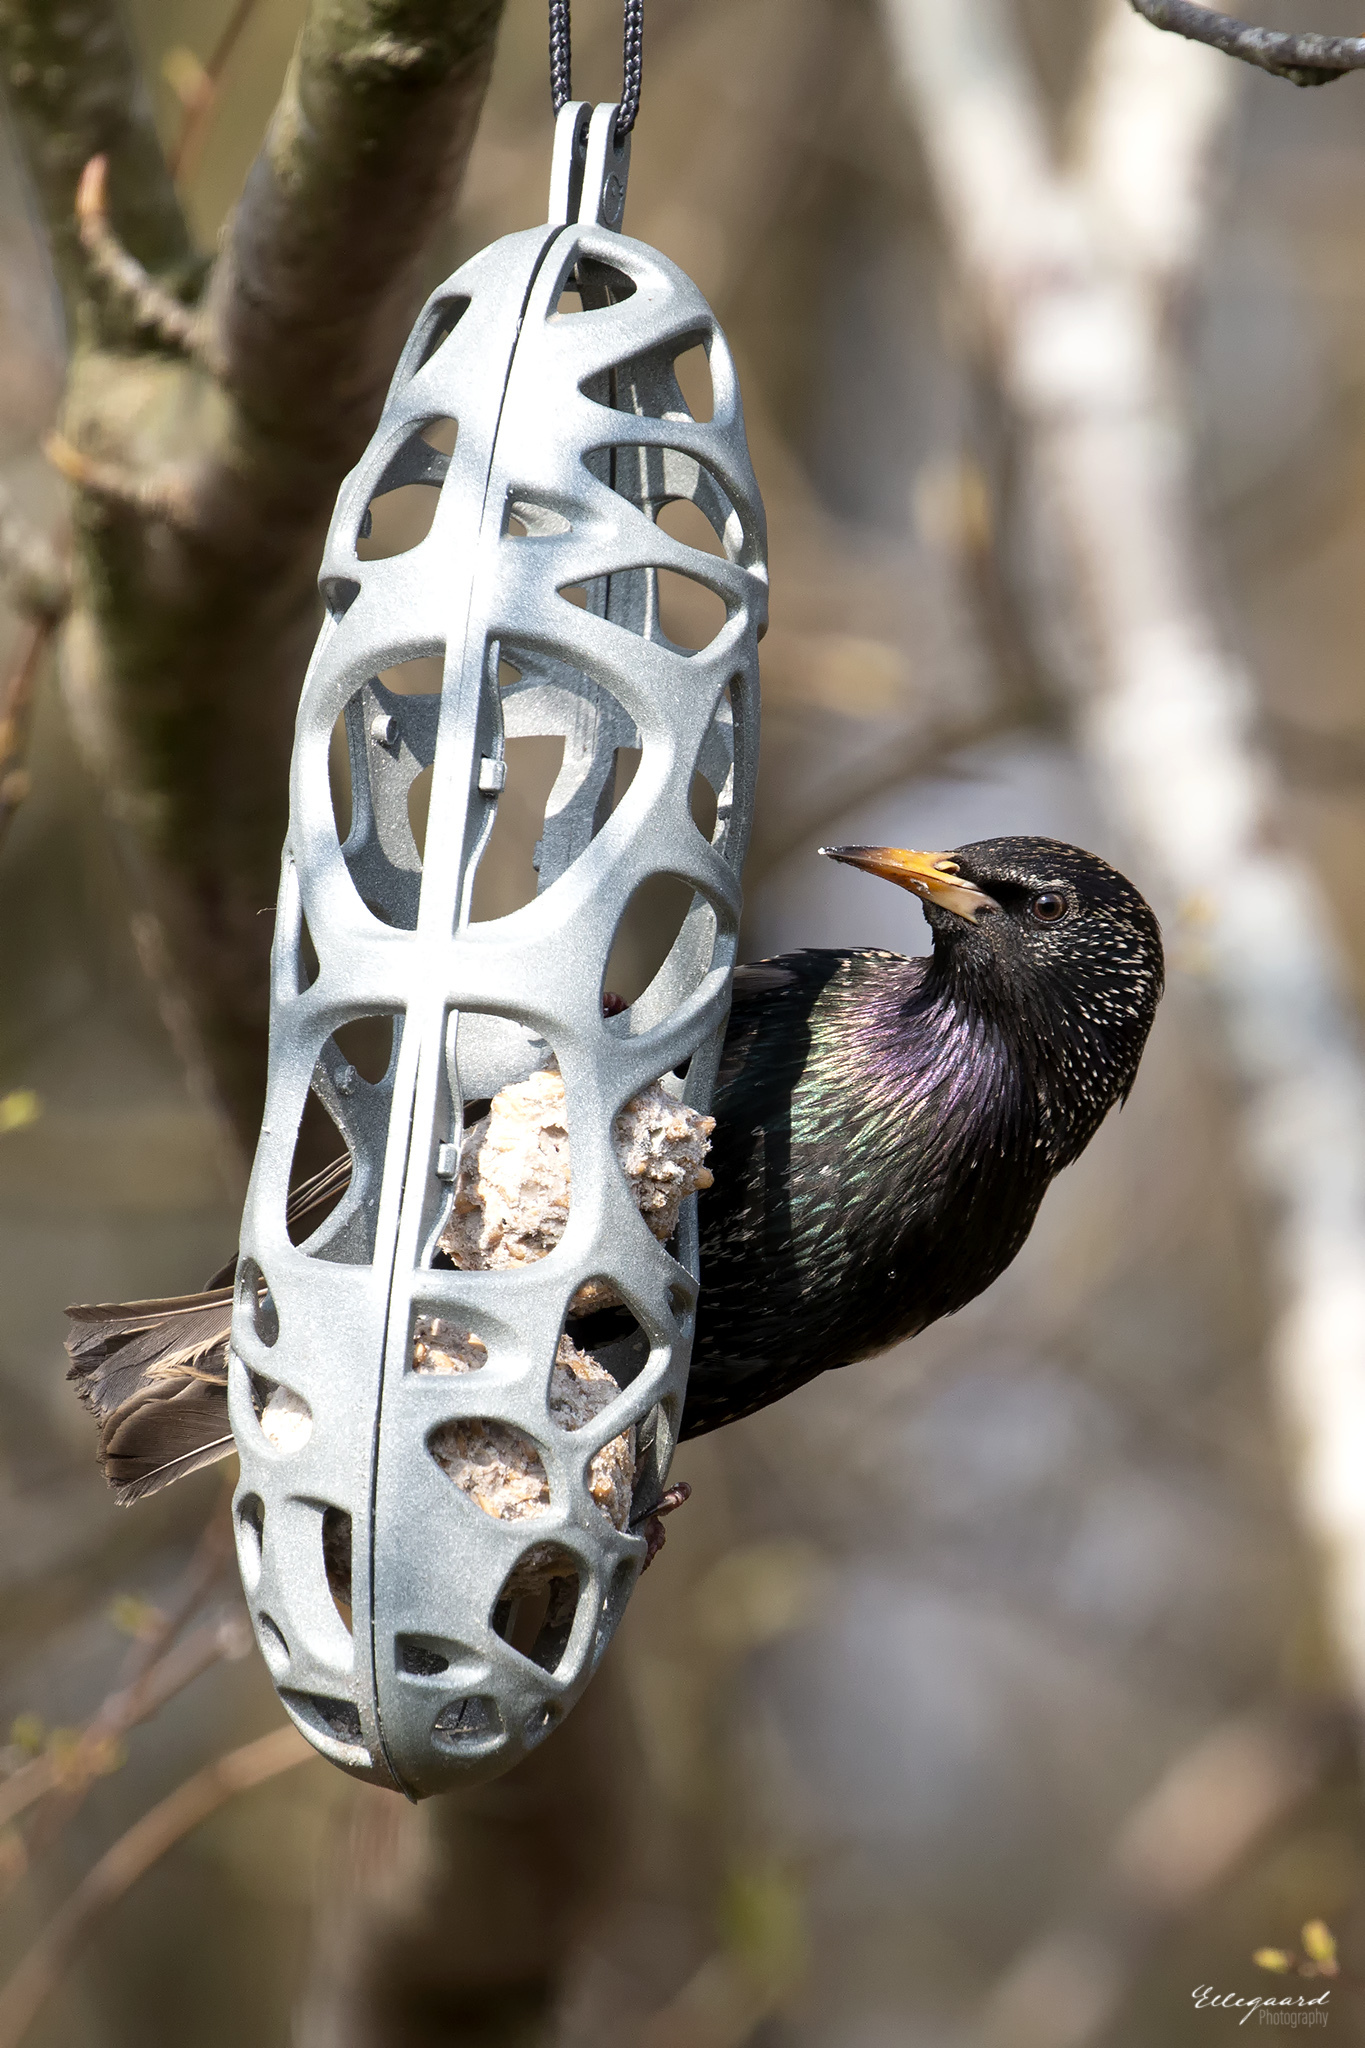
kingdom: Animalia
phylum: Chordata
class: Aves
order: Passeriformes
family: Sturnidae
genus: Sturnus
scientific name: Sturnus vulgaris
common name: Common starling
